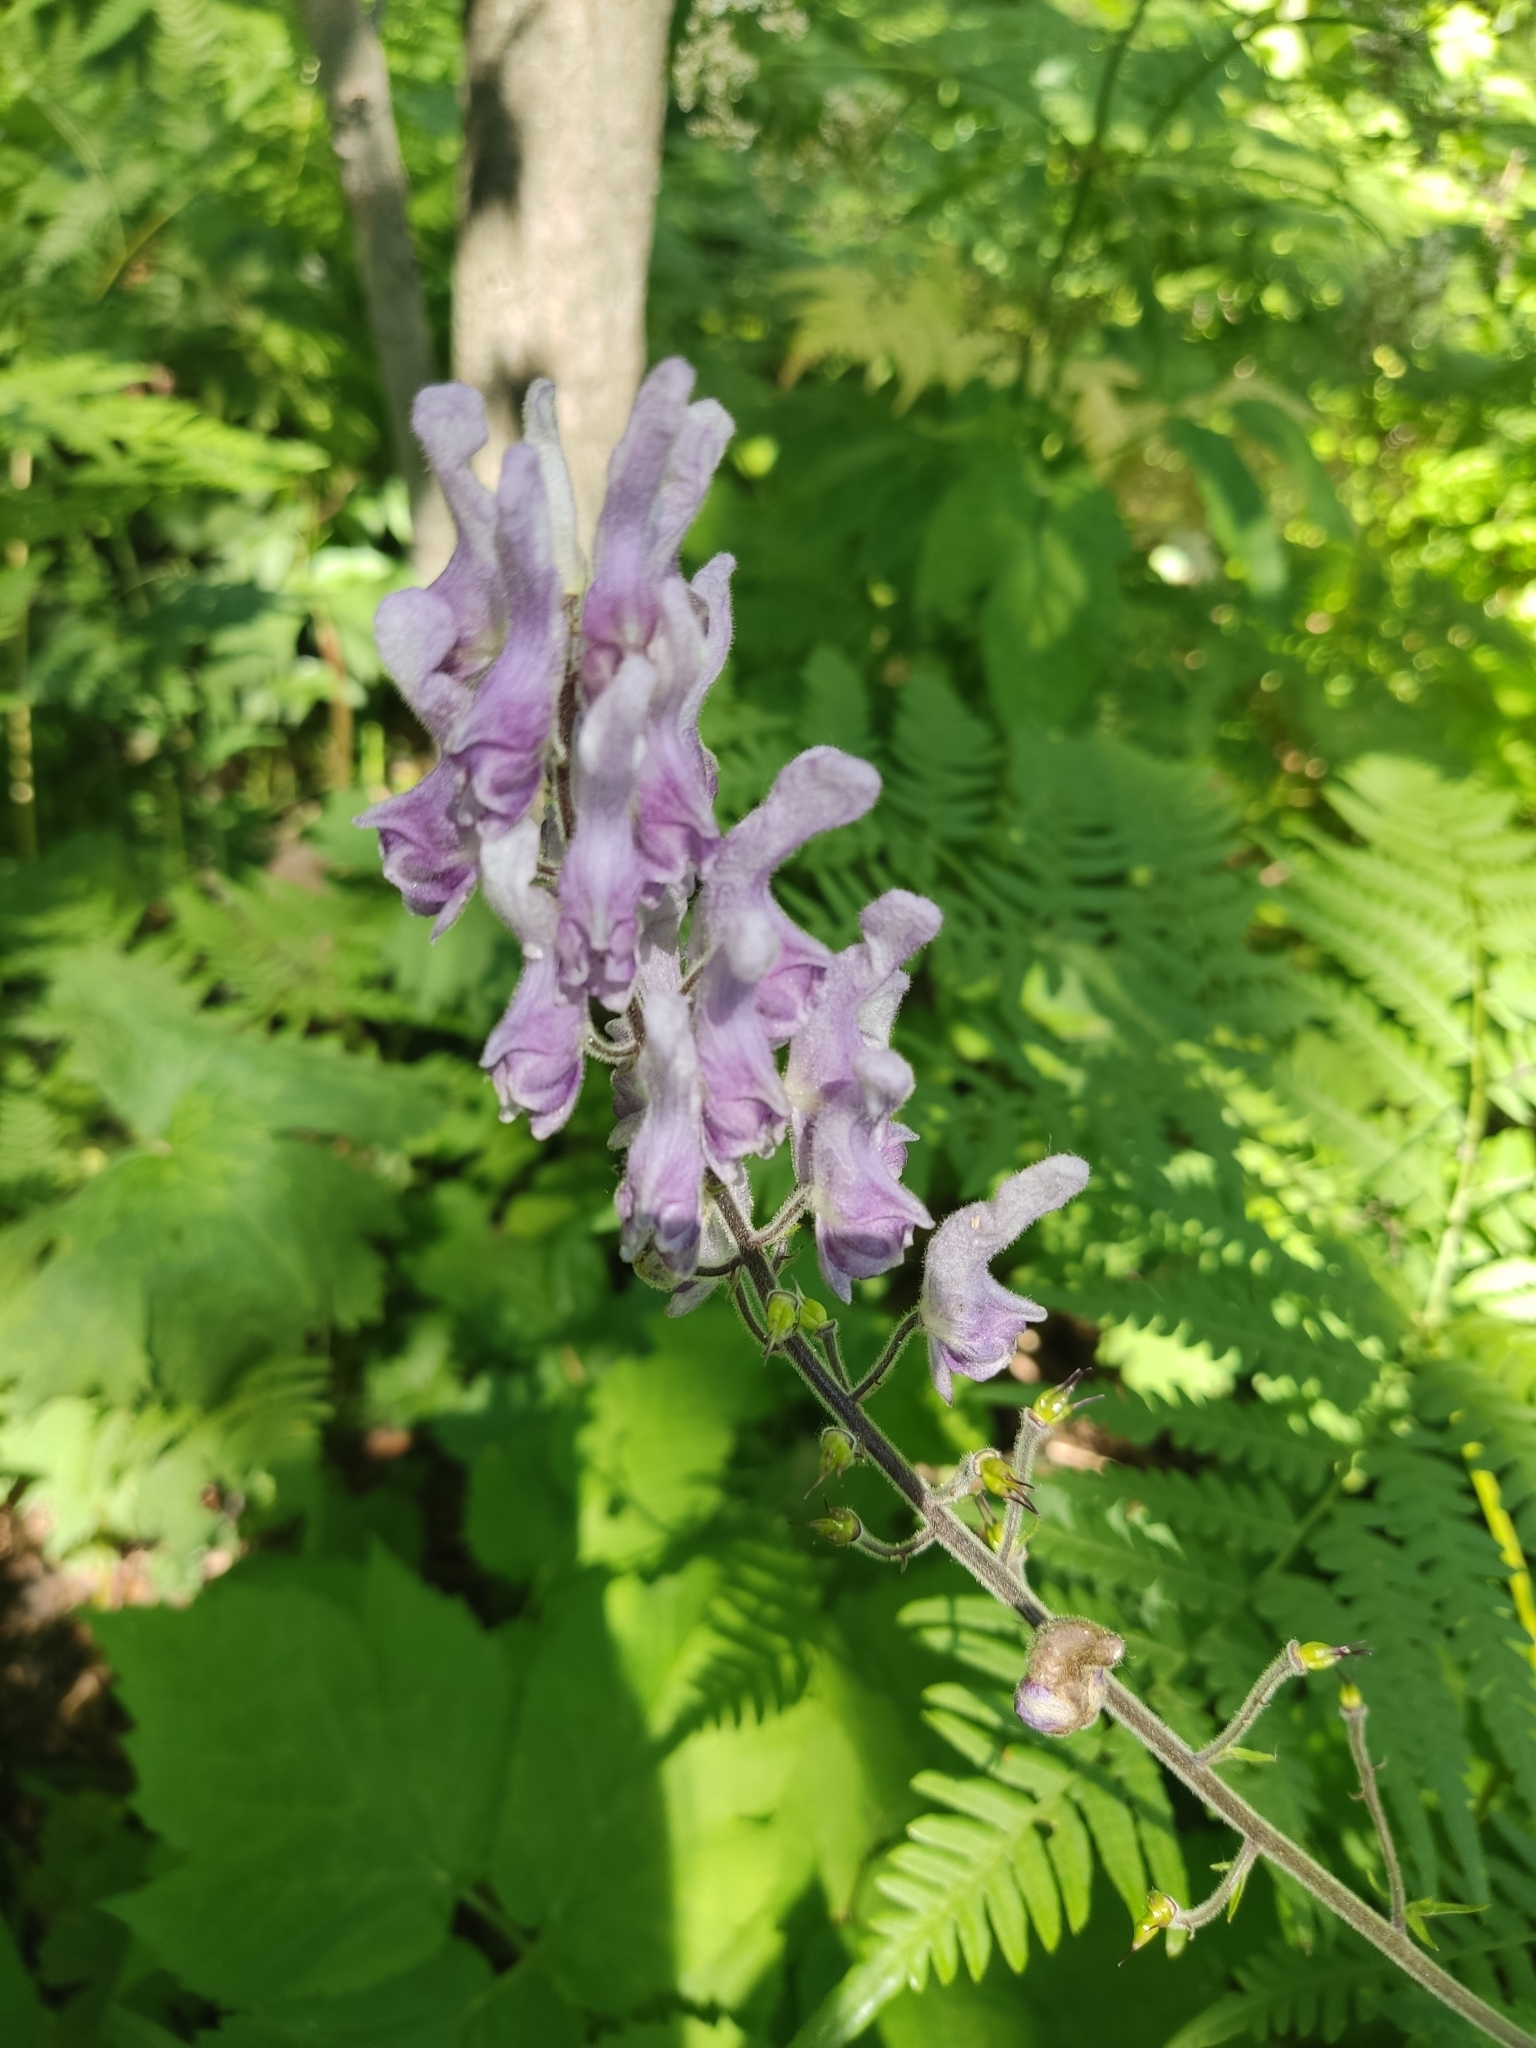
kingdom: Plantae
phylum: Tracheophyta
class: Magnoliopsida
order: Ranunculales
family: Ranunculaceae
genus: Aconitum
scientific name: Aconitum septentrionale
